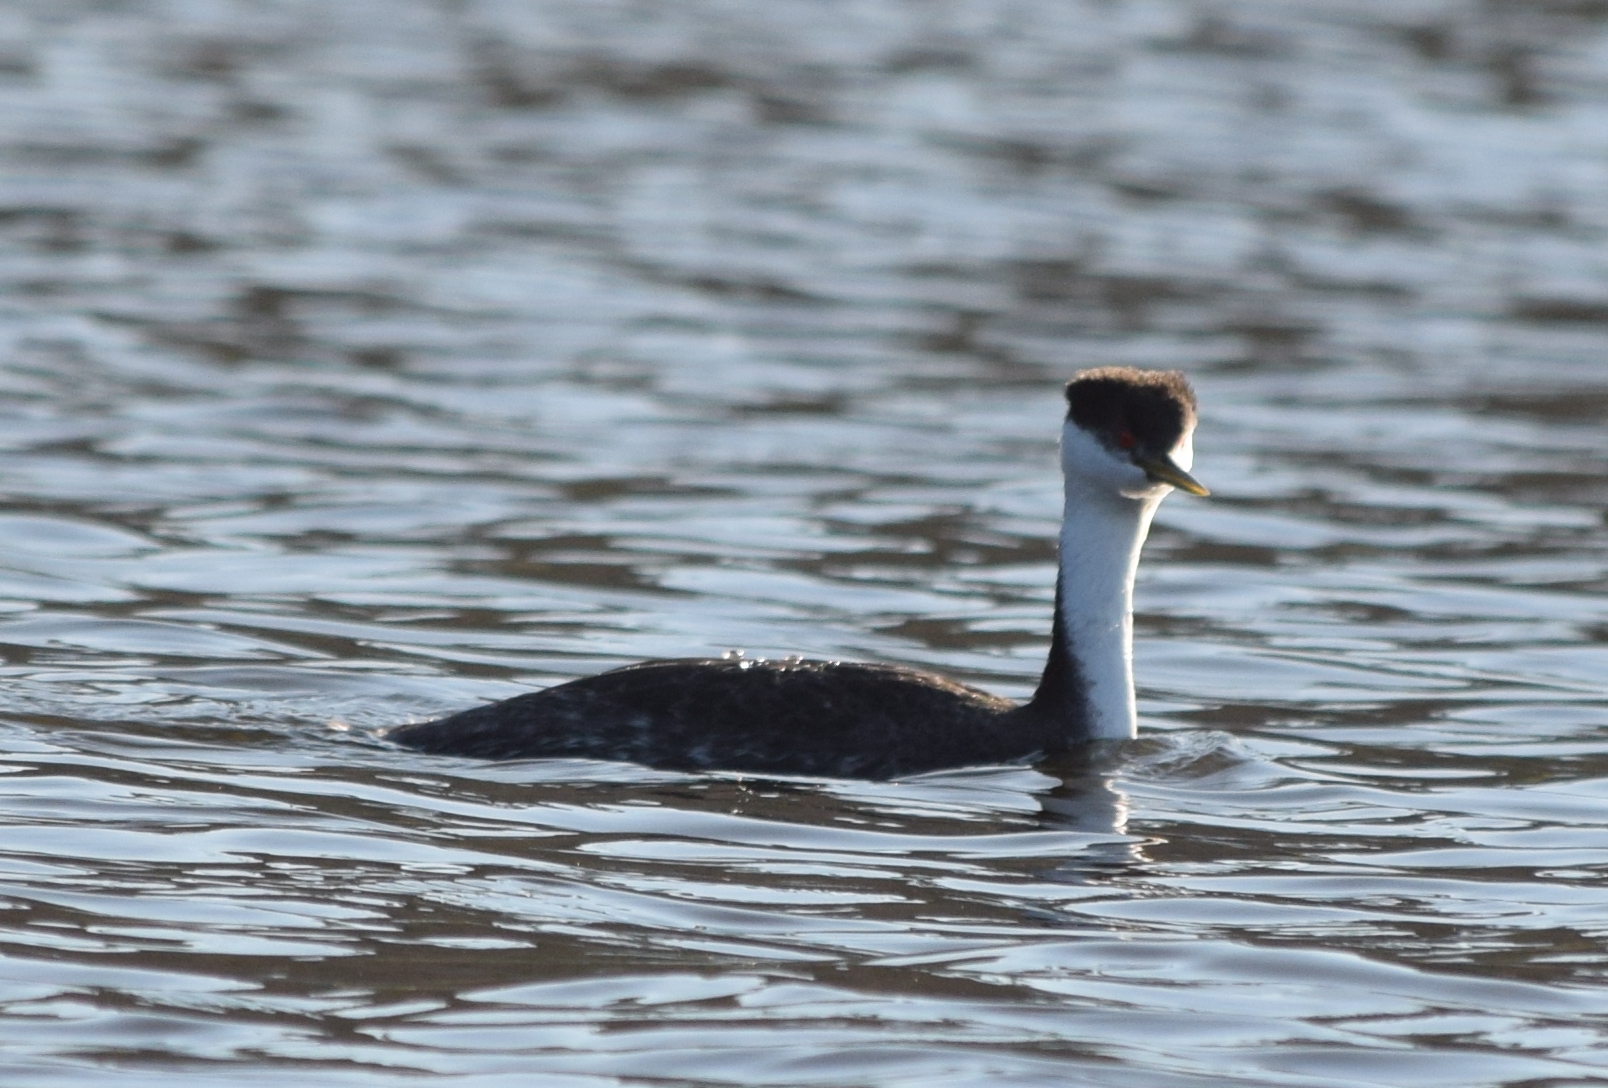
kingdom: Animalia
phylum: Chordata
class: Aves
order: Podicipediformes
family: Podicipedidae
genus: Aechmophorus
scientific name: Aechmophorus occidentalis
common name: Western grebe
